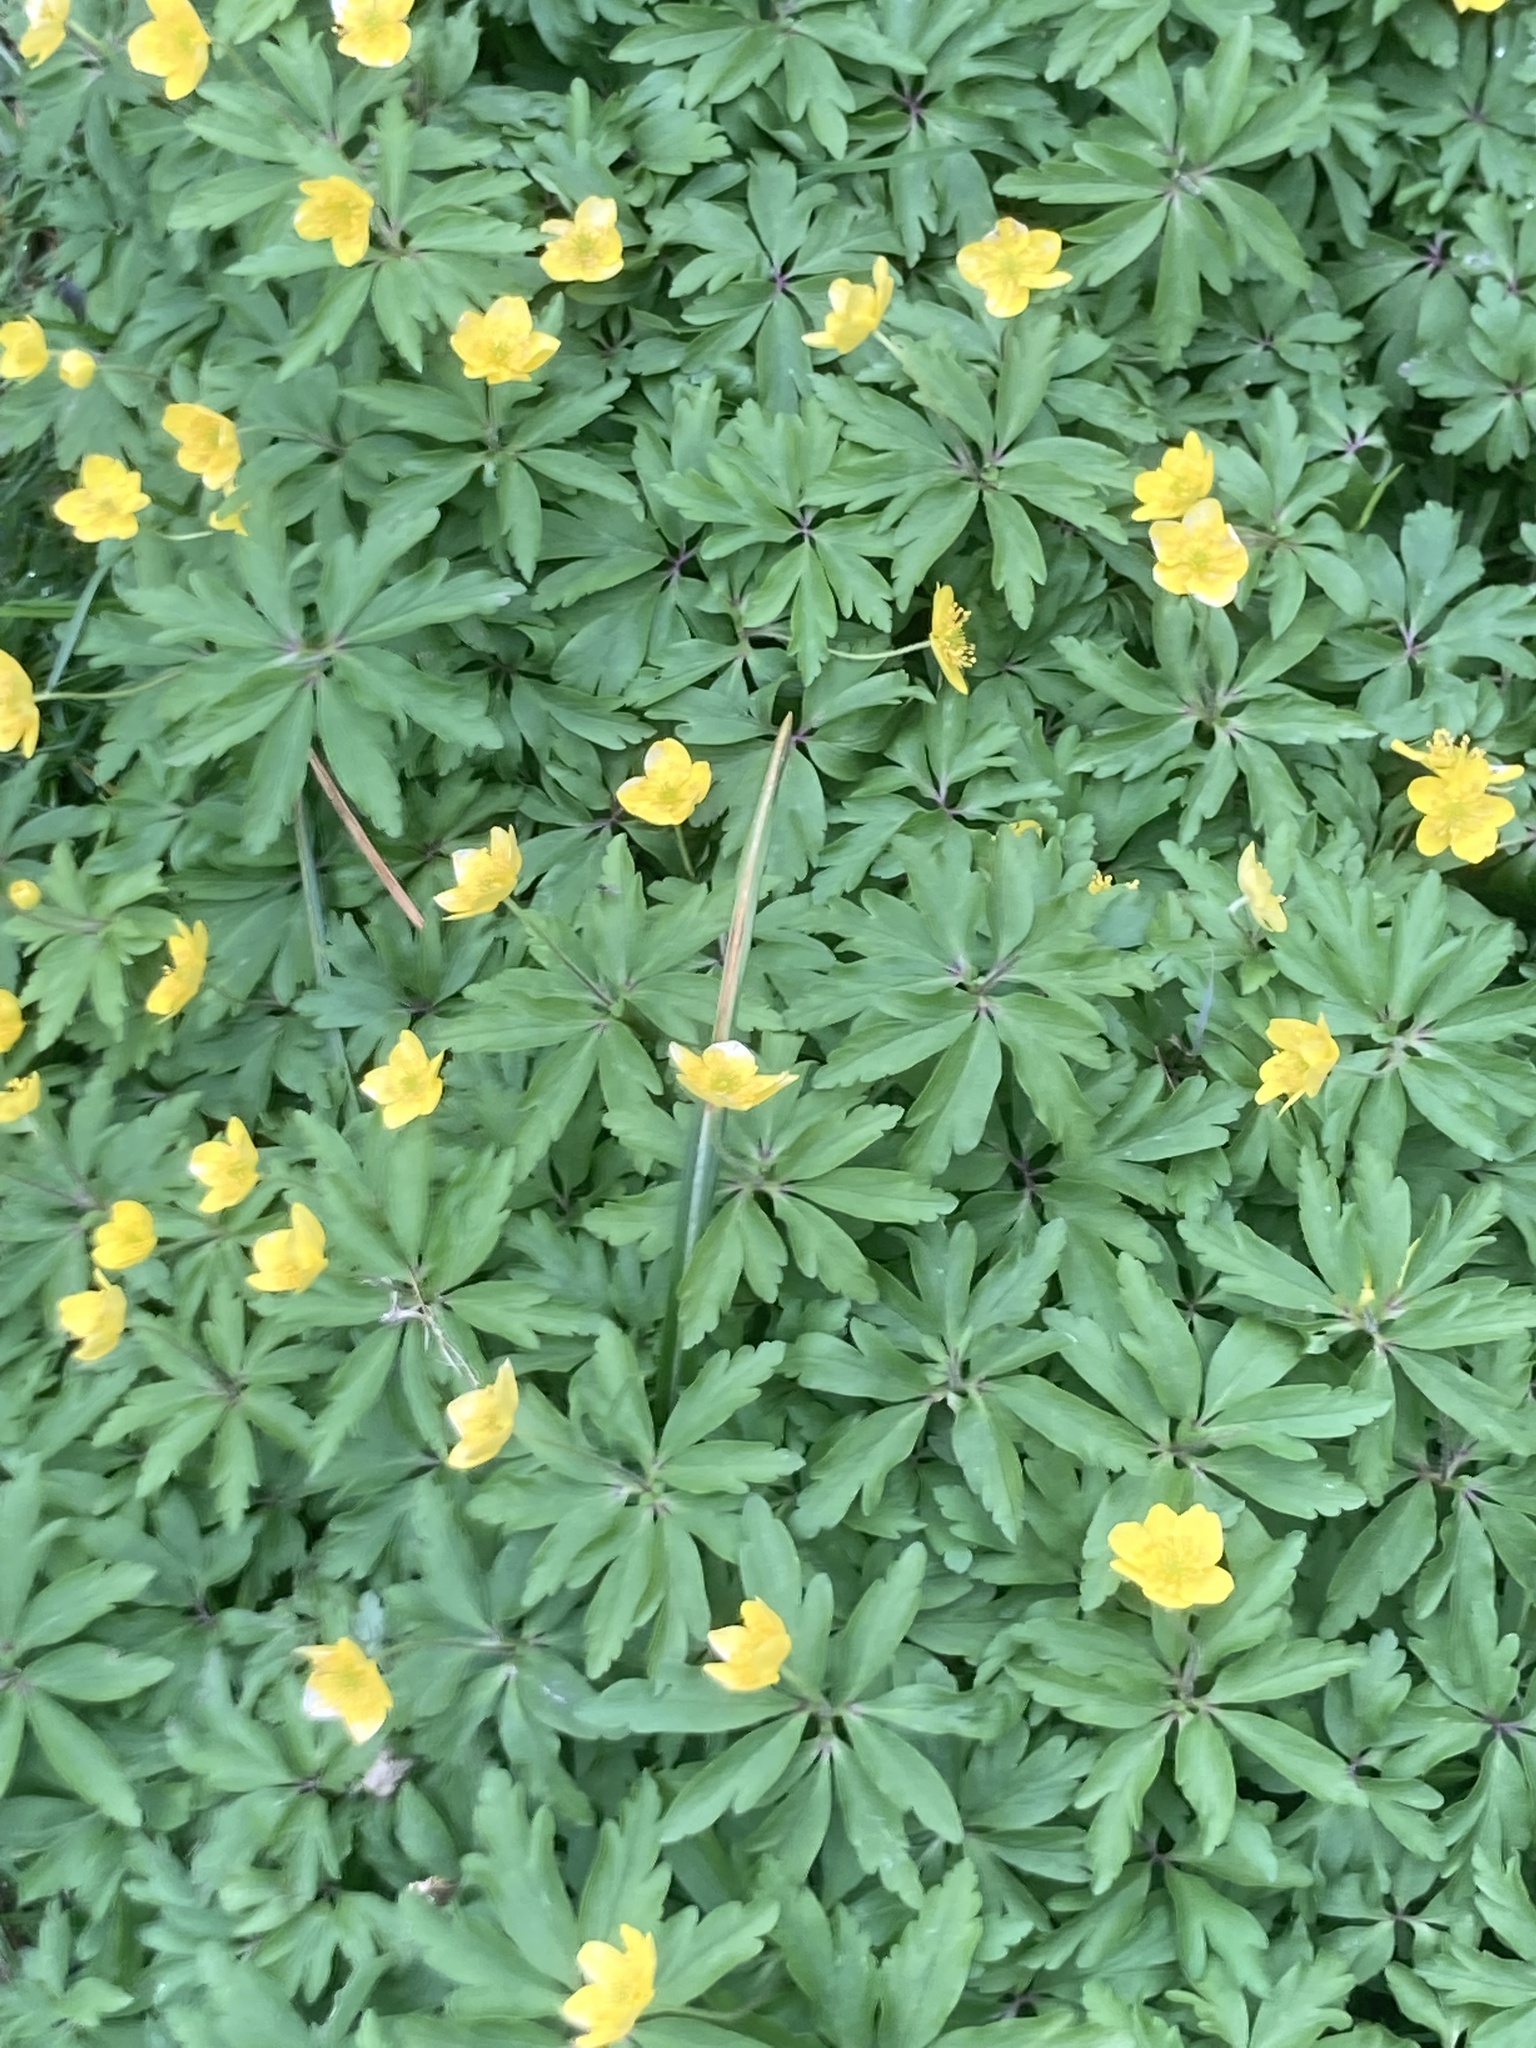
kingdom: Plantae
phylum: Tracheophyta
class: Magnoliopsida
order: Ranunculales
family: Ranunculaceae
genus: Anemone
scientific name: Anemone ranunculoides
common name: Yellow anemone
